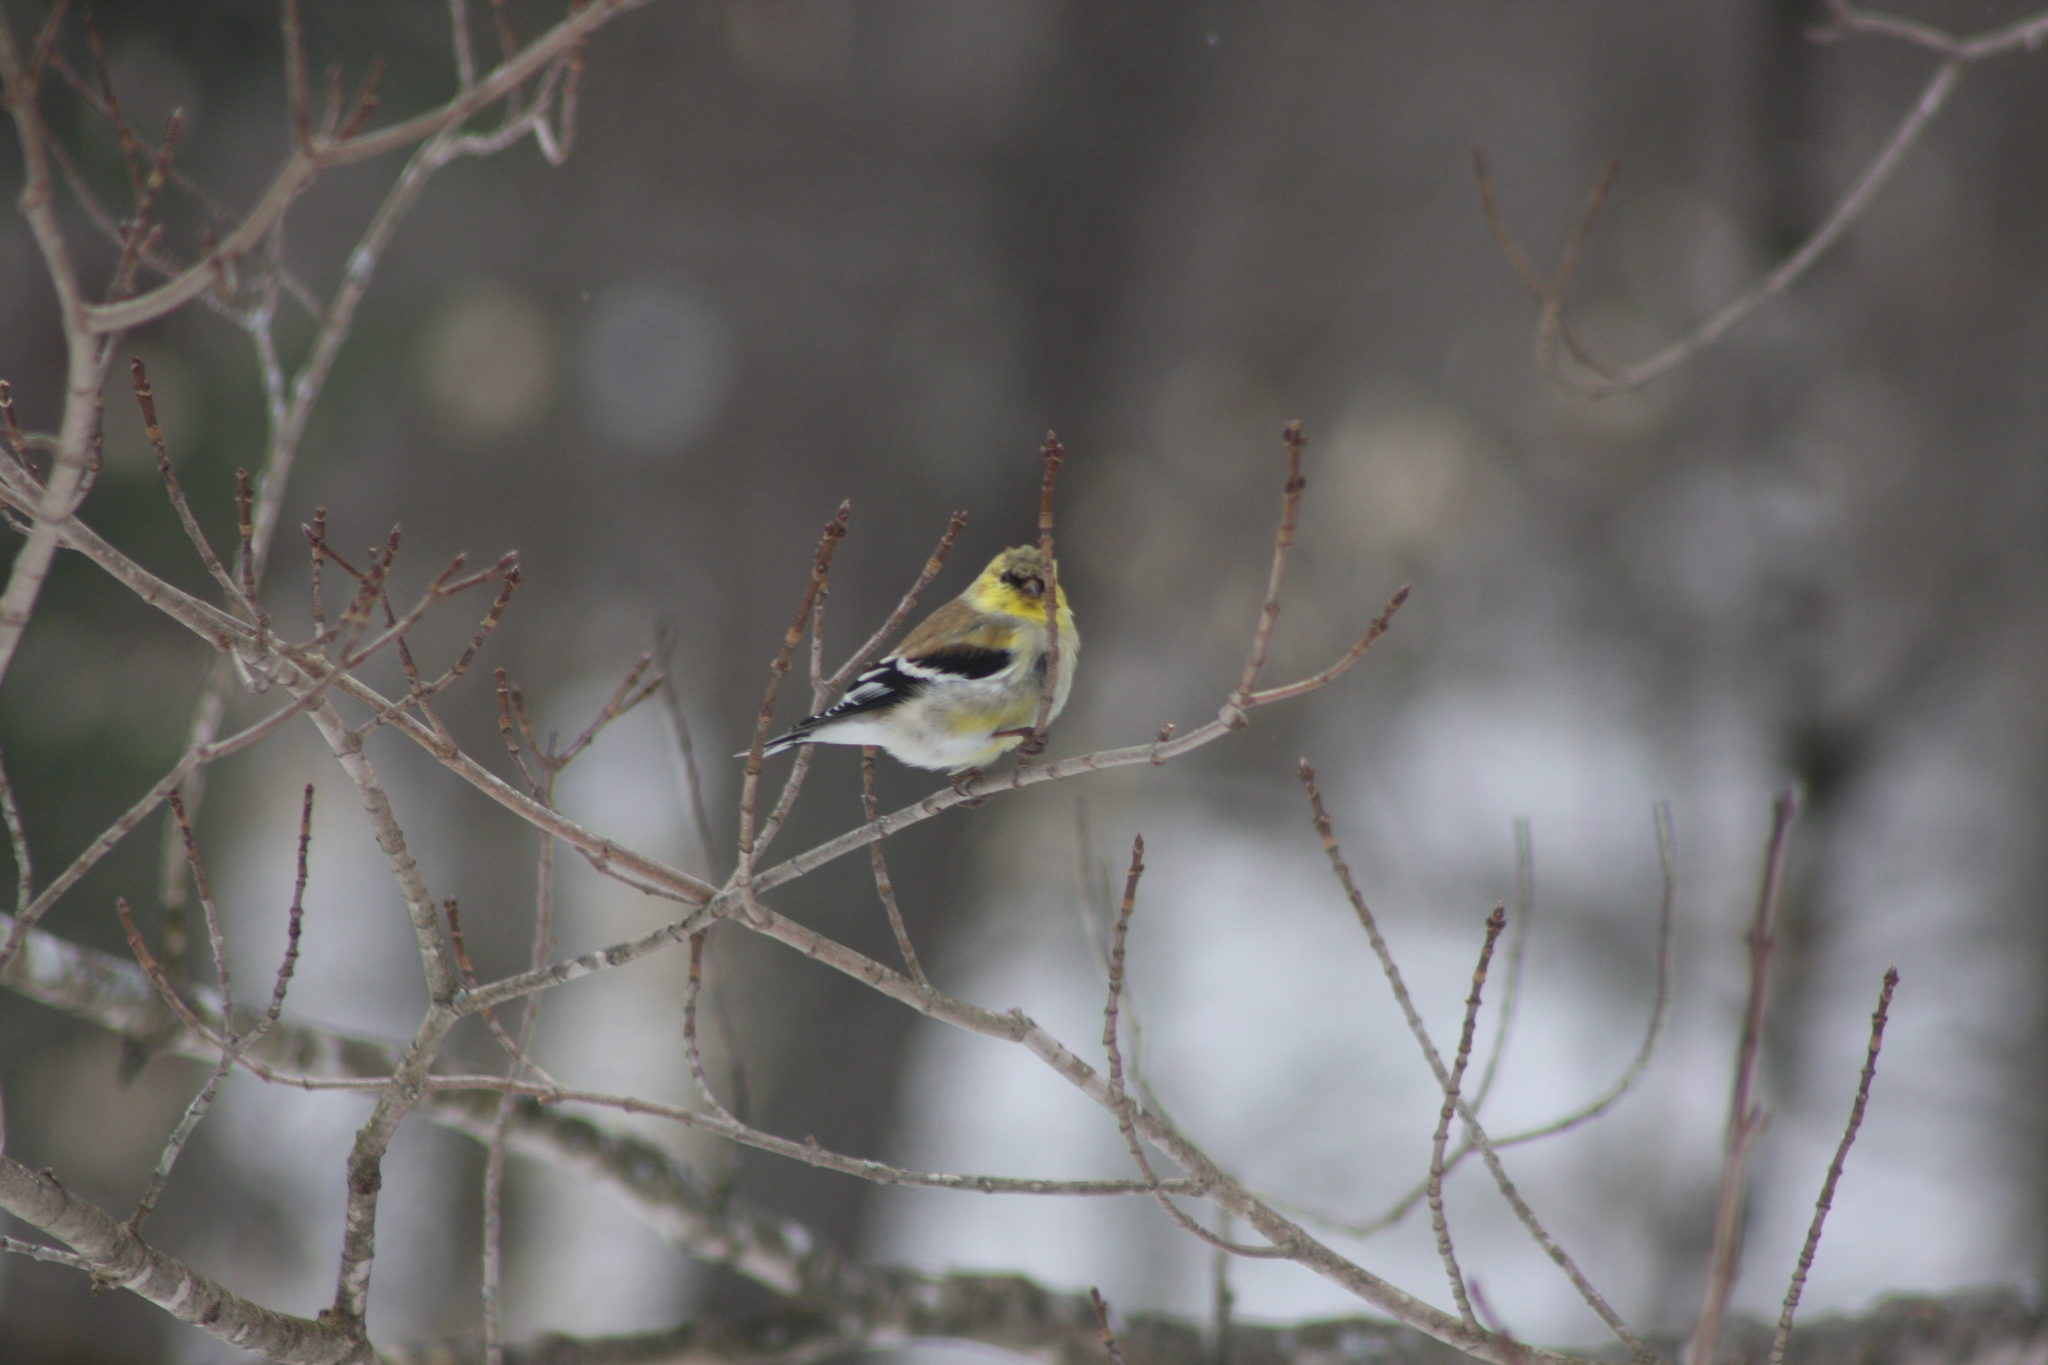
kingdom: Animalia
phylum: Chordata
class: Aves
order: Passeriformes
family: Fringillidae
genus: Spinus
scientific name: Spinus tristis
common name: American goldfinch
